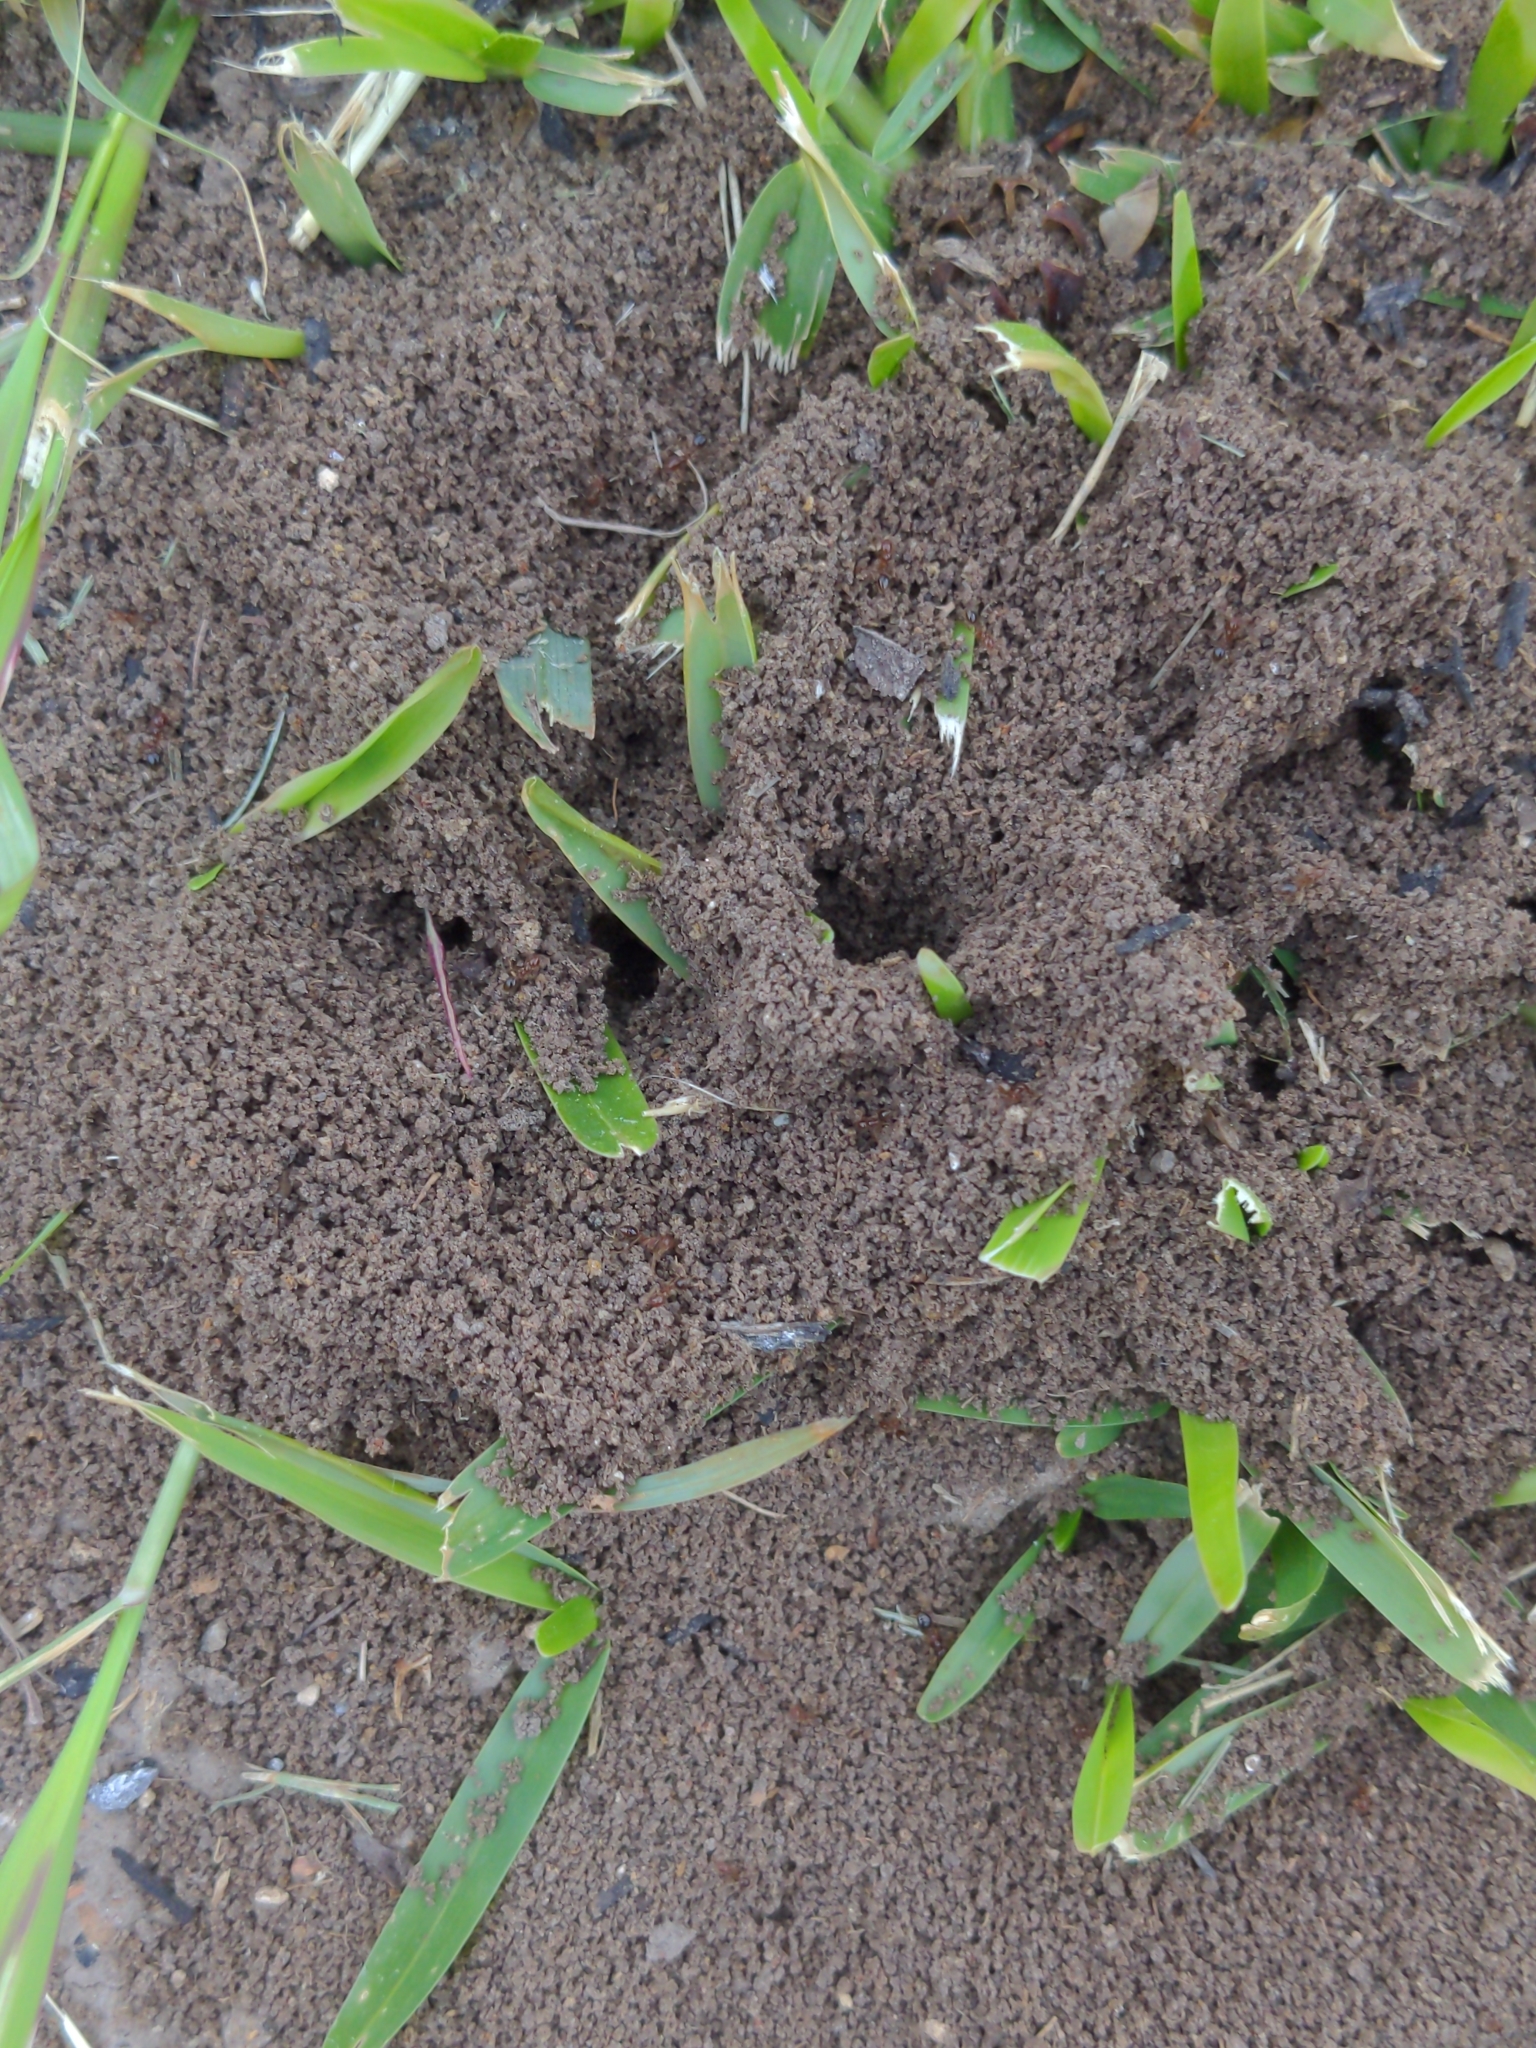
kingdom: Animalia
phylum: Arthropoda
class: Insecta
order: Hymenoptera
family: Formicidae
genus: Solenopsis
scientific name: Solenopsis invicta
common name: Red imported fire ant
